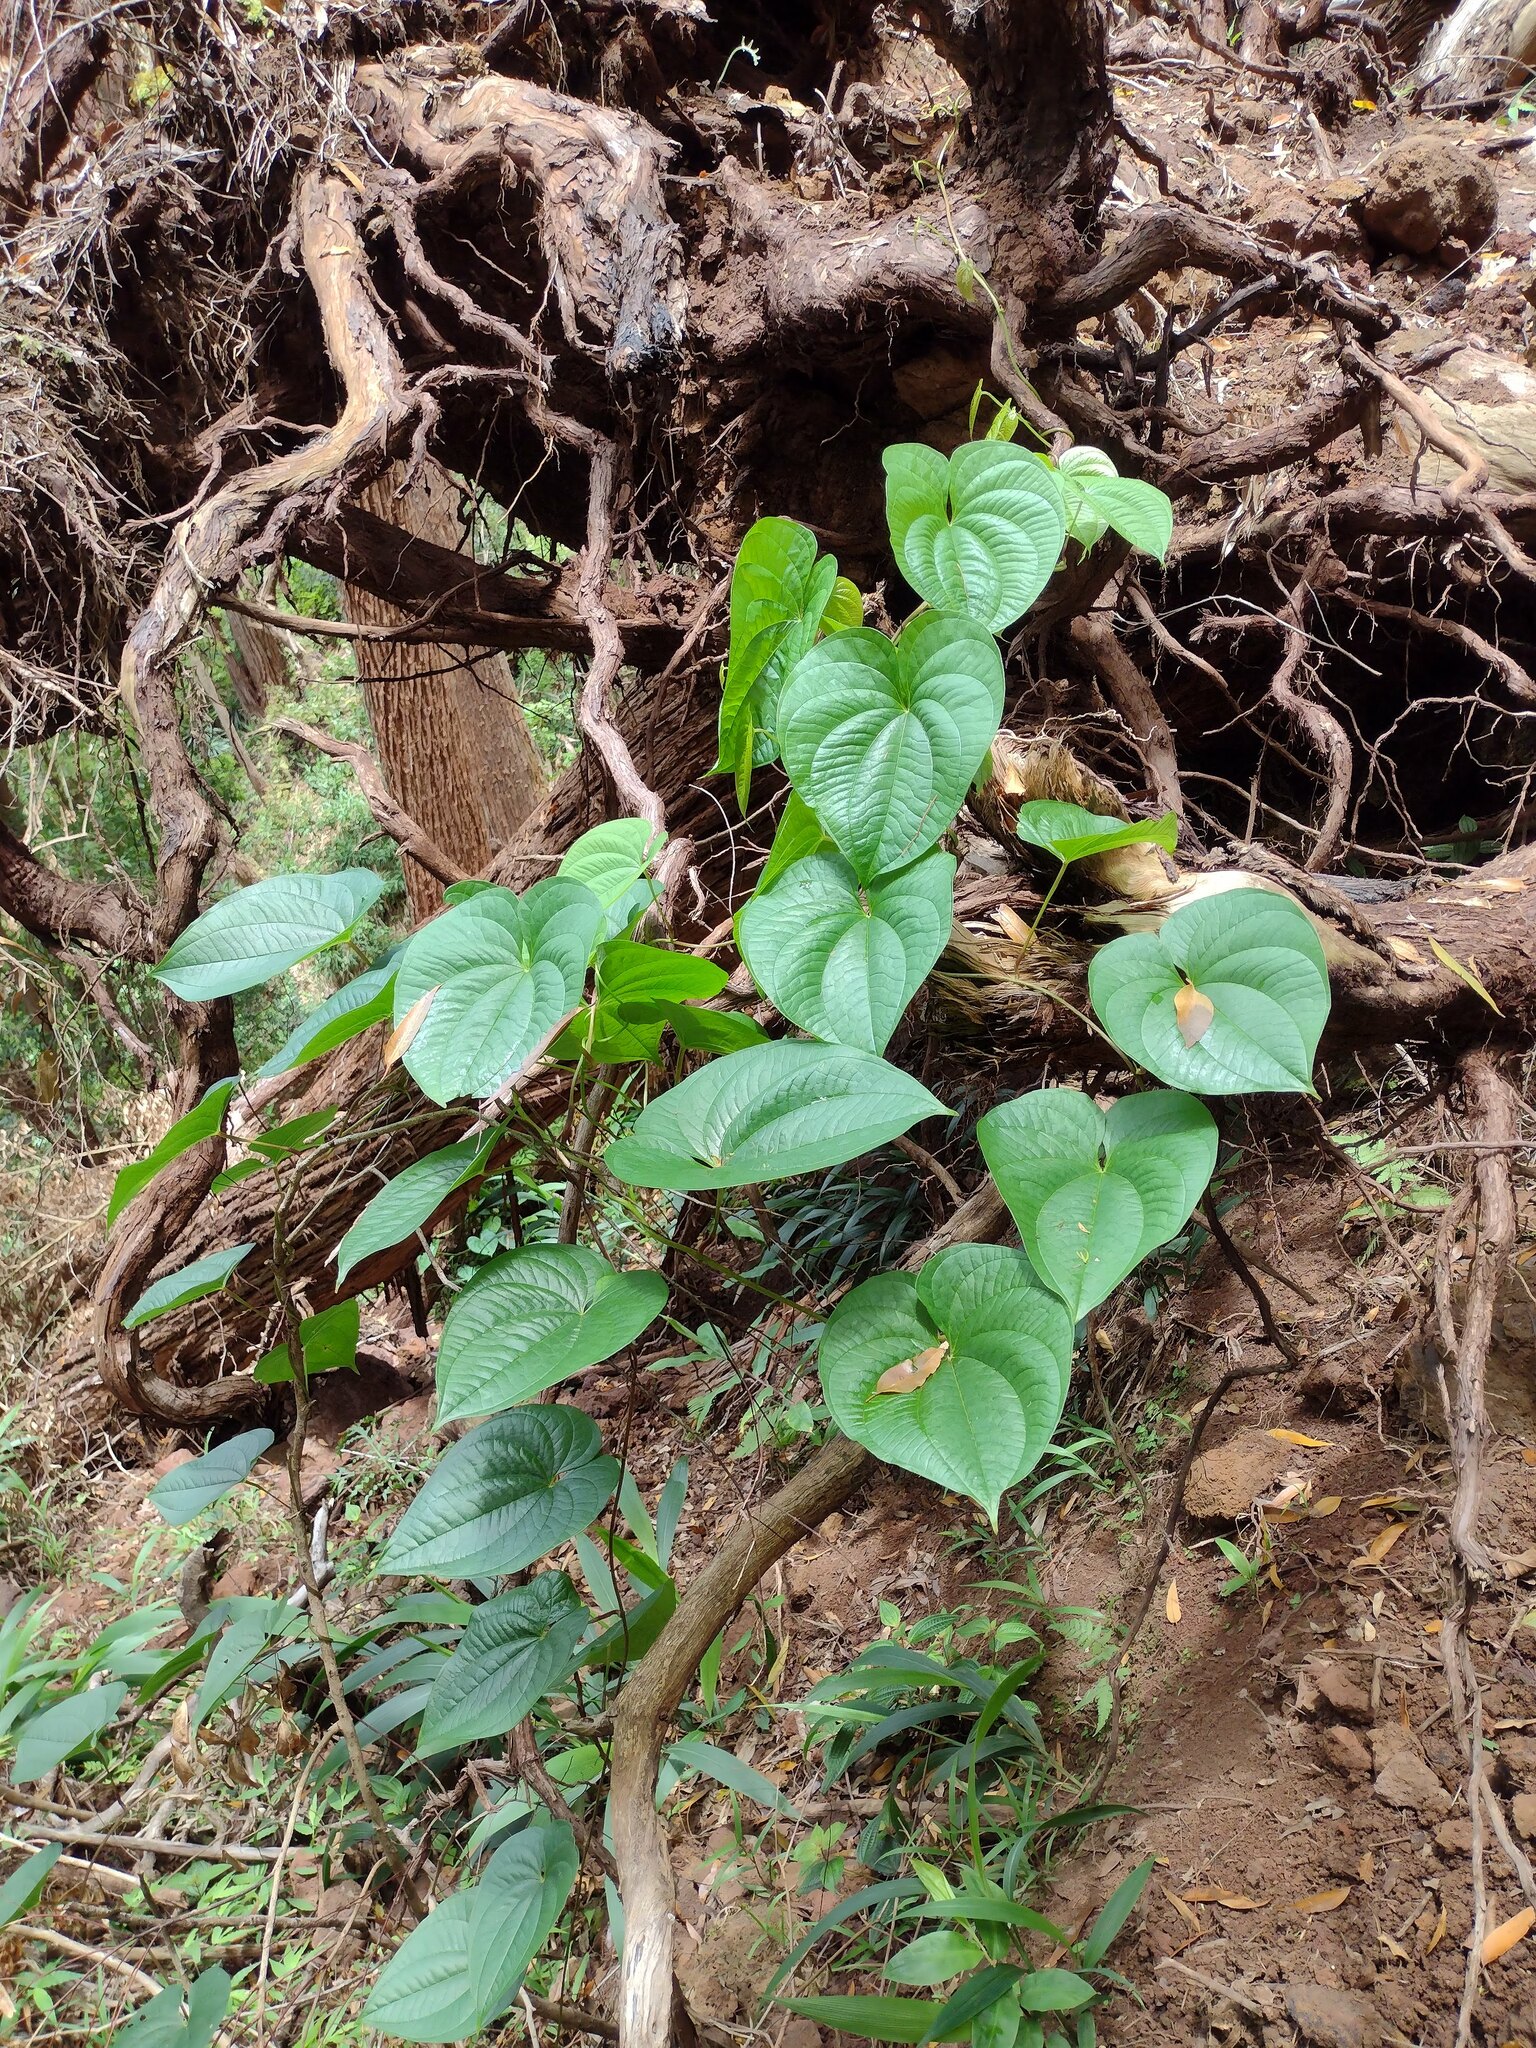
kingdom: Plantae
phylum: Tracheophyta
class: Liliopsida
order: Dioscoreales
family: Dioscoreaceae
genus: Dioscorea
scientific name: Dioscorea bulbifera
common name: Air yam
